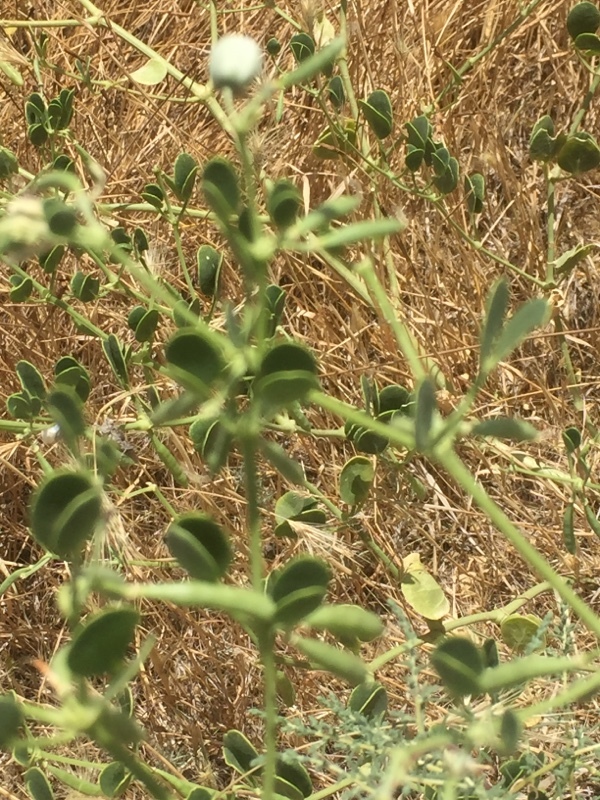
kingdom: Plantae
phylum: Tracheophyta
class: Magnoliopsida
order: Zygophyllales
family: Zygophyllaceae
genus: Zygophyllum
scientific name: Zygophyllum fabago
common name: Syrian beancaper
